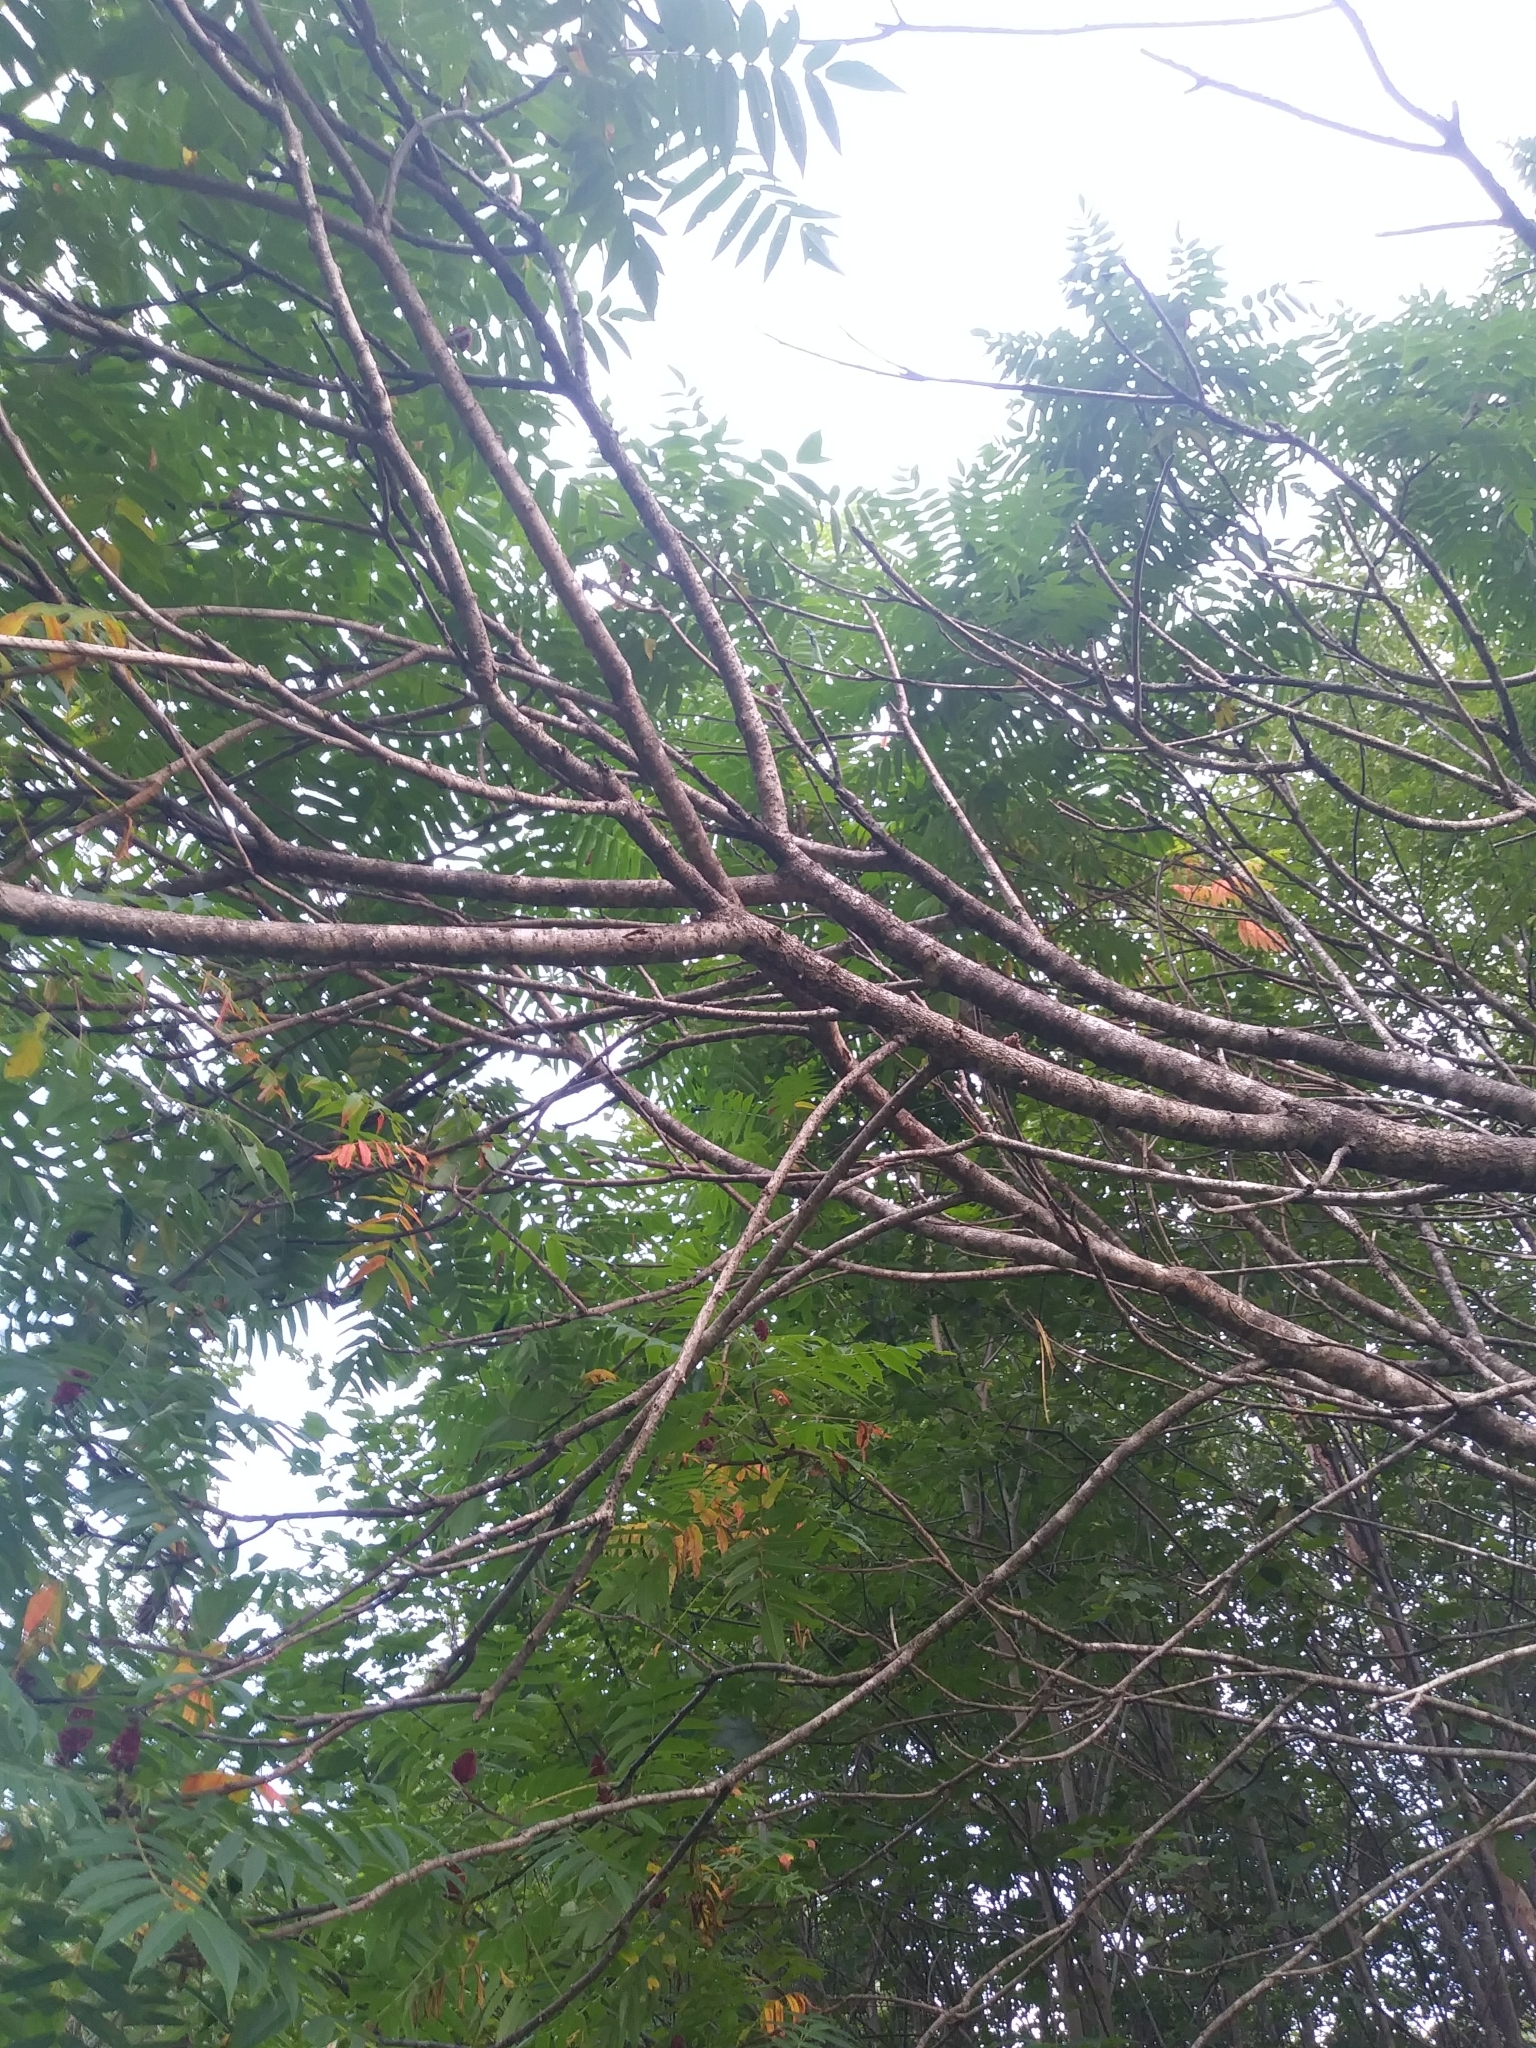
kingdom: Plantae
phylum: Tracheophyta
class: Magnoliopsida
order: Sapindales
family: Anacardiaceae
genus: Rhus
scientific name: Rhus typhina
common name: Staghorn sumac
